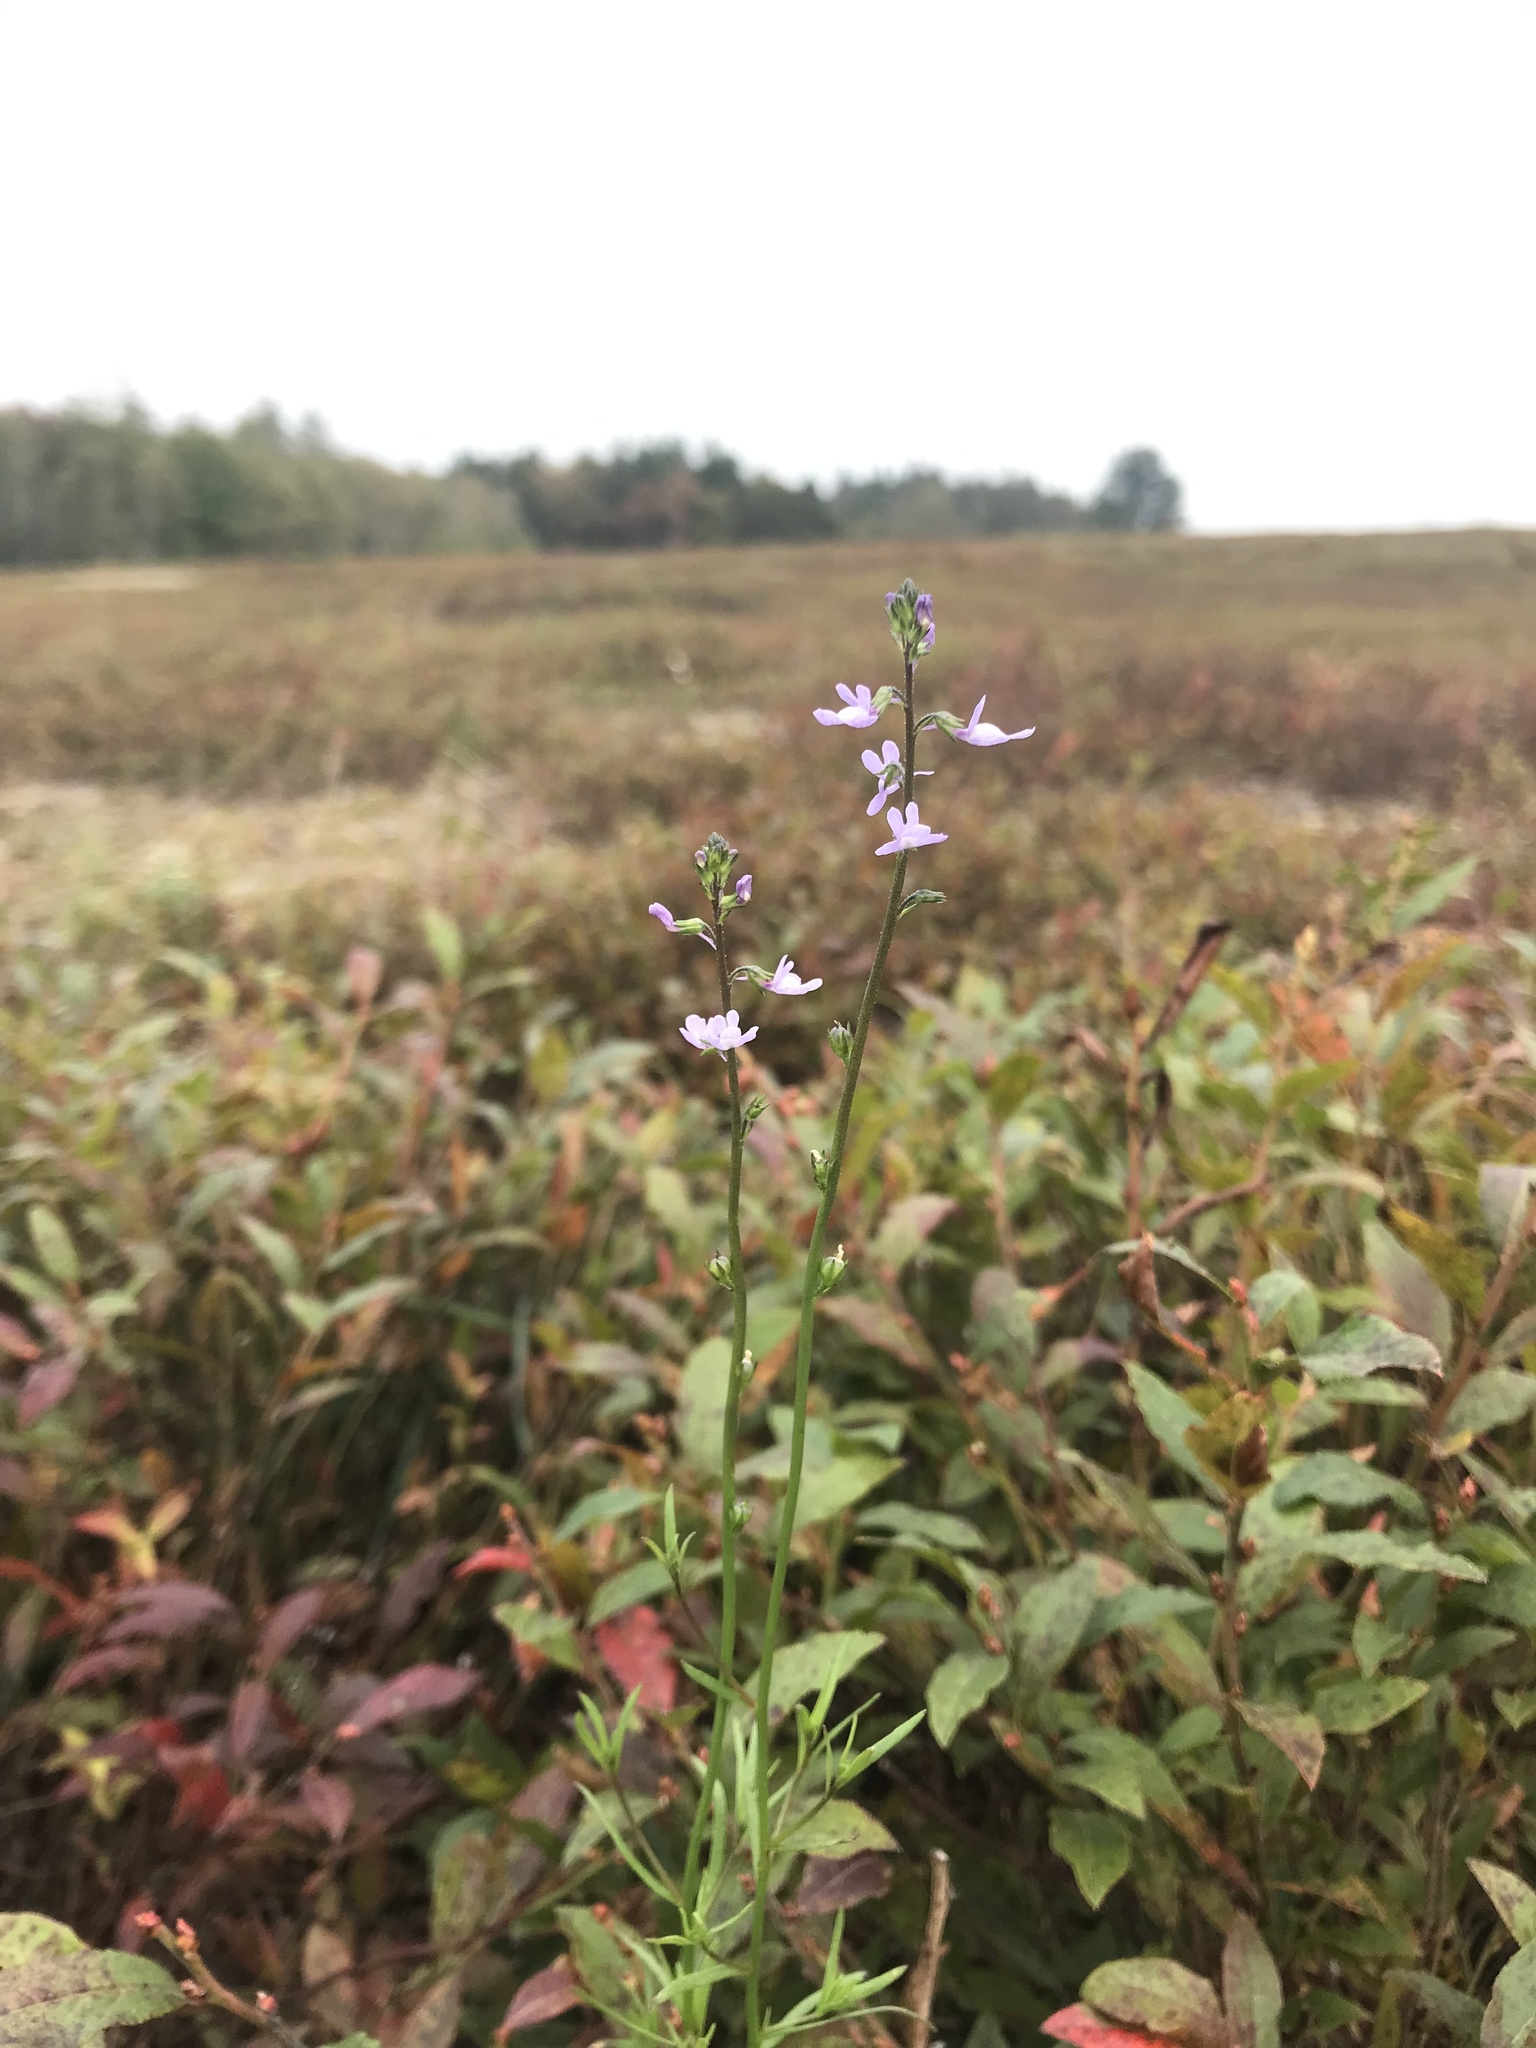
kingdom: Plantae
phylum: Tracheophyta
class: Magnoliopsida
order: Lamiales
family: Plantaginaceae
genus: Nuttallanthus
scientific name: Nuttallanthus canadensis
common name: Blue toadflax
